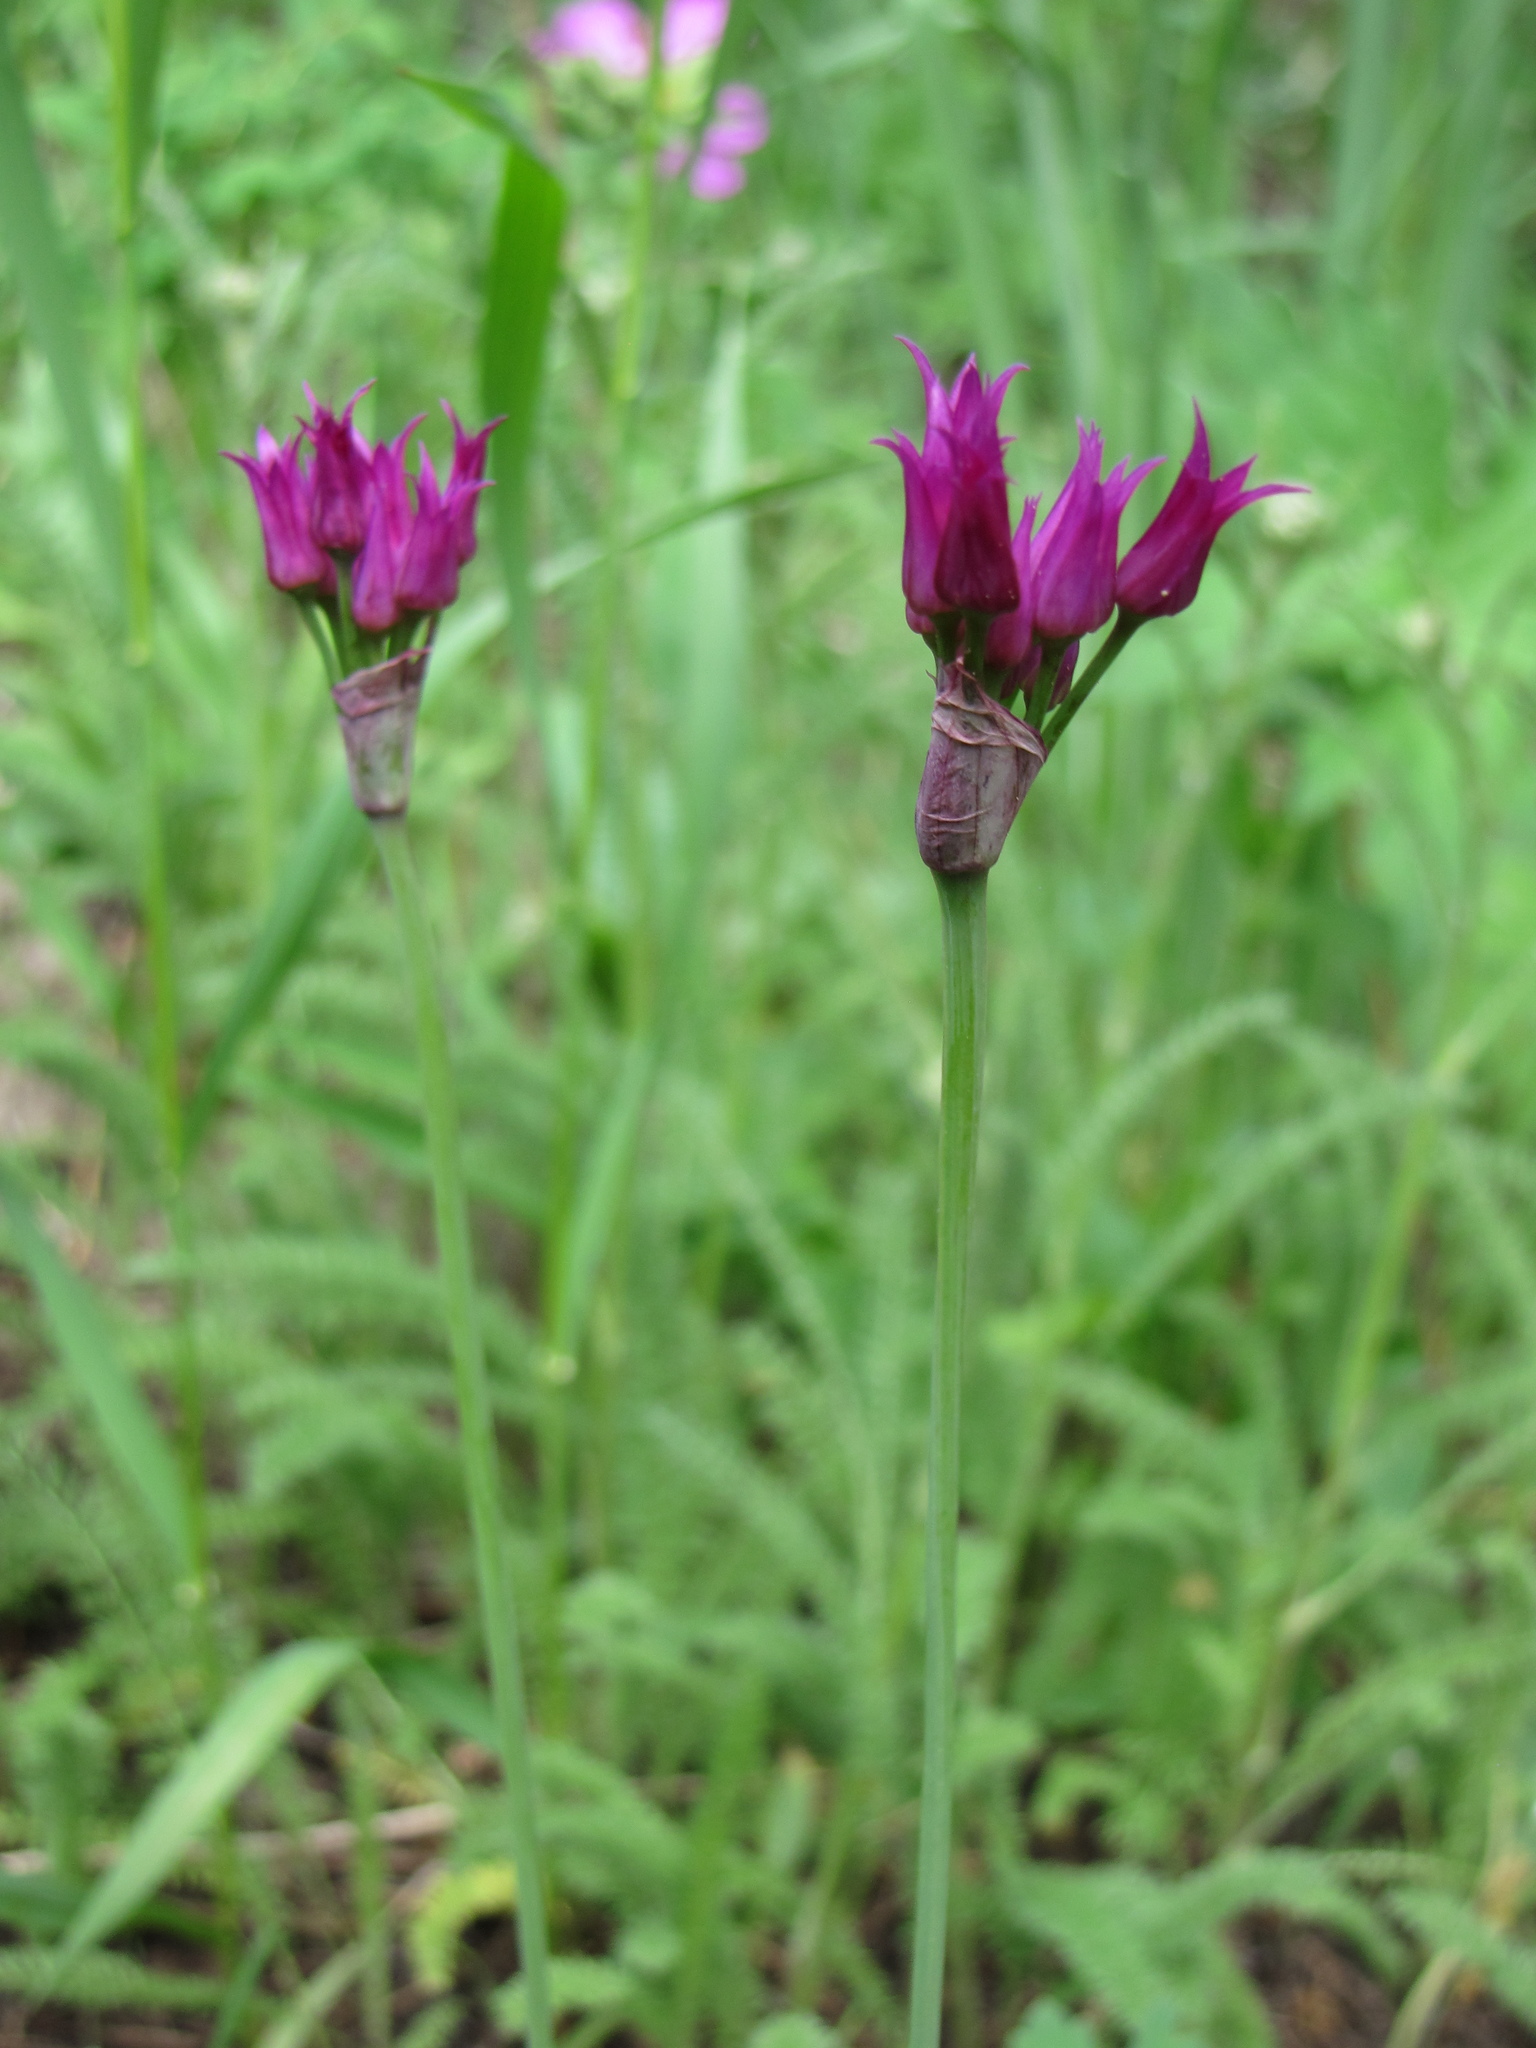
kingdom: Plantae
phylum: Tracheophyta
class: Liliopsida
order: Asparagales
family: Amaryllidaceae
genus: Allium
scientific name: Allium brevistylum
